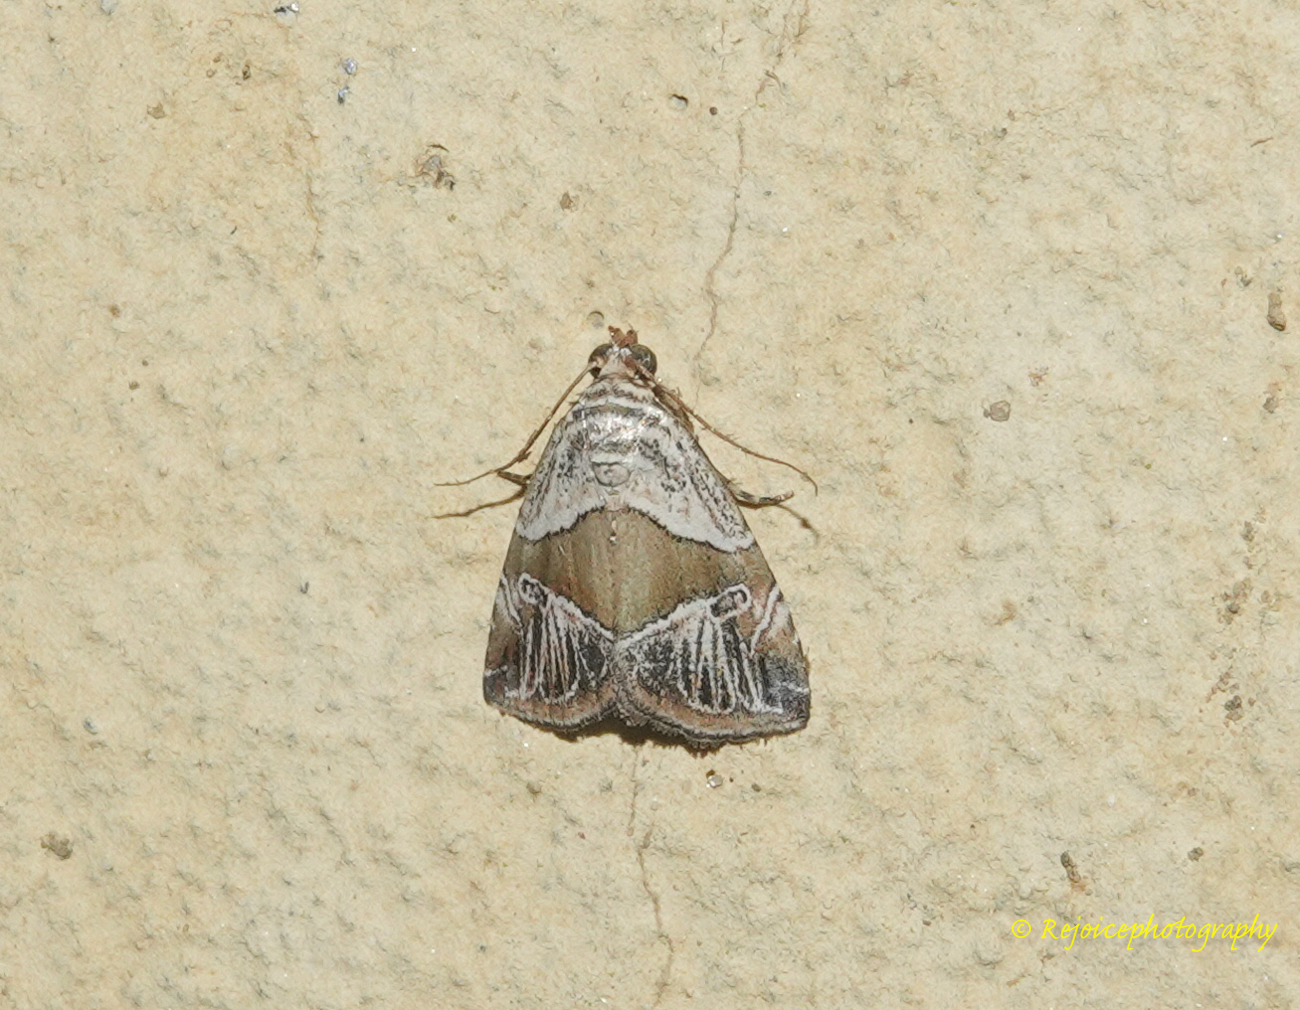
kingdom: Animalia
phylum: Arthropoda
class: Insecta
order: Lepidoptera
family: Noctuidae
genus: Maliattha
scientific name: Maliattha separata
